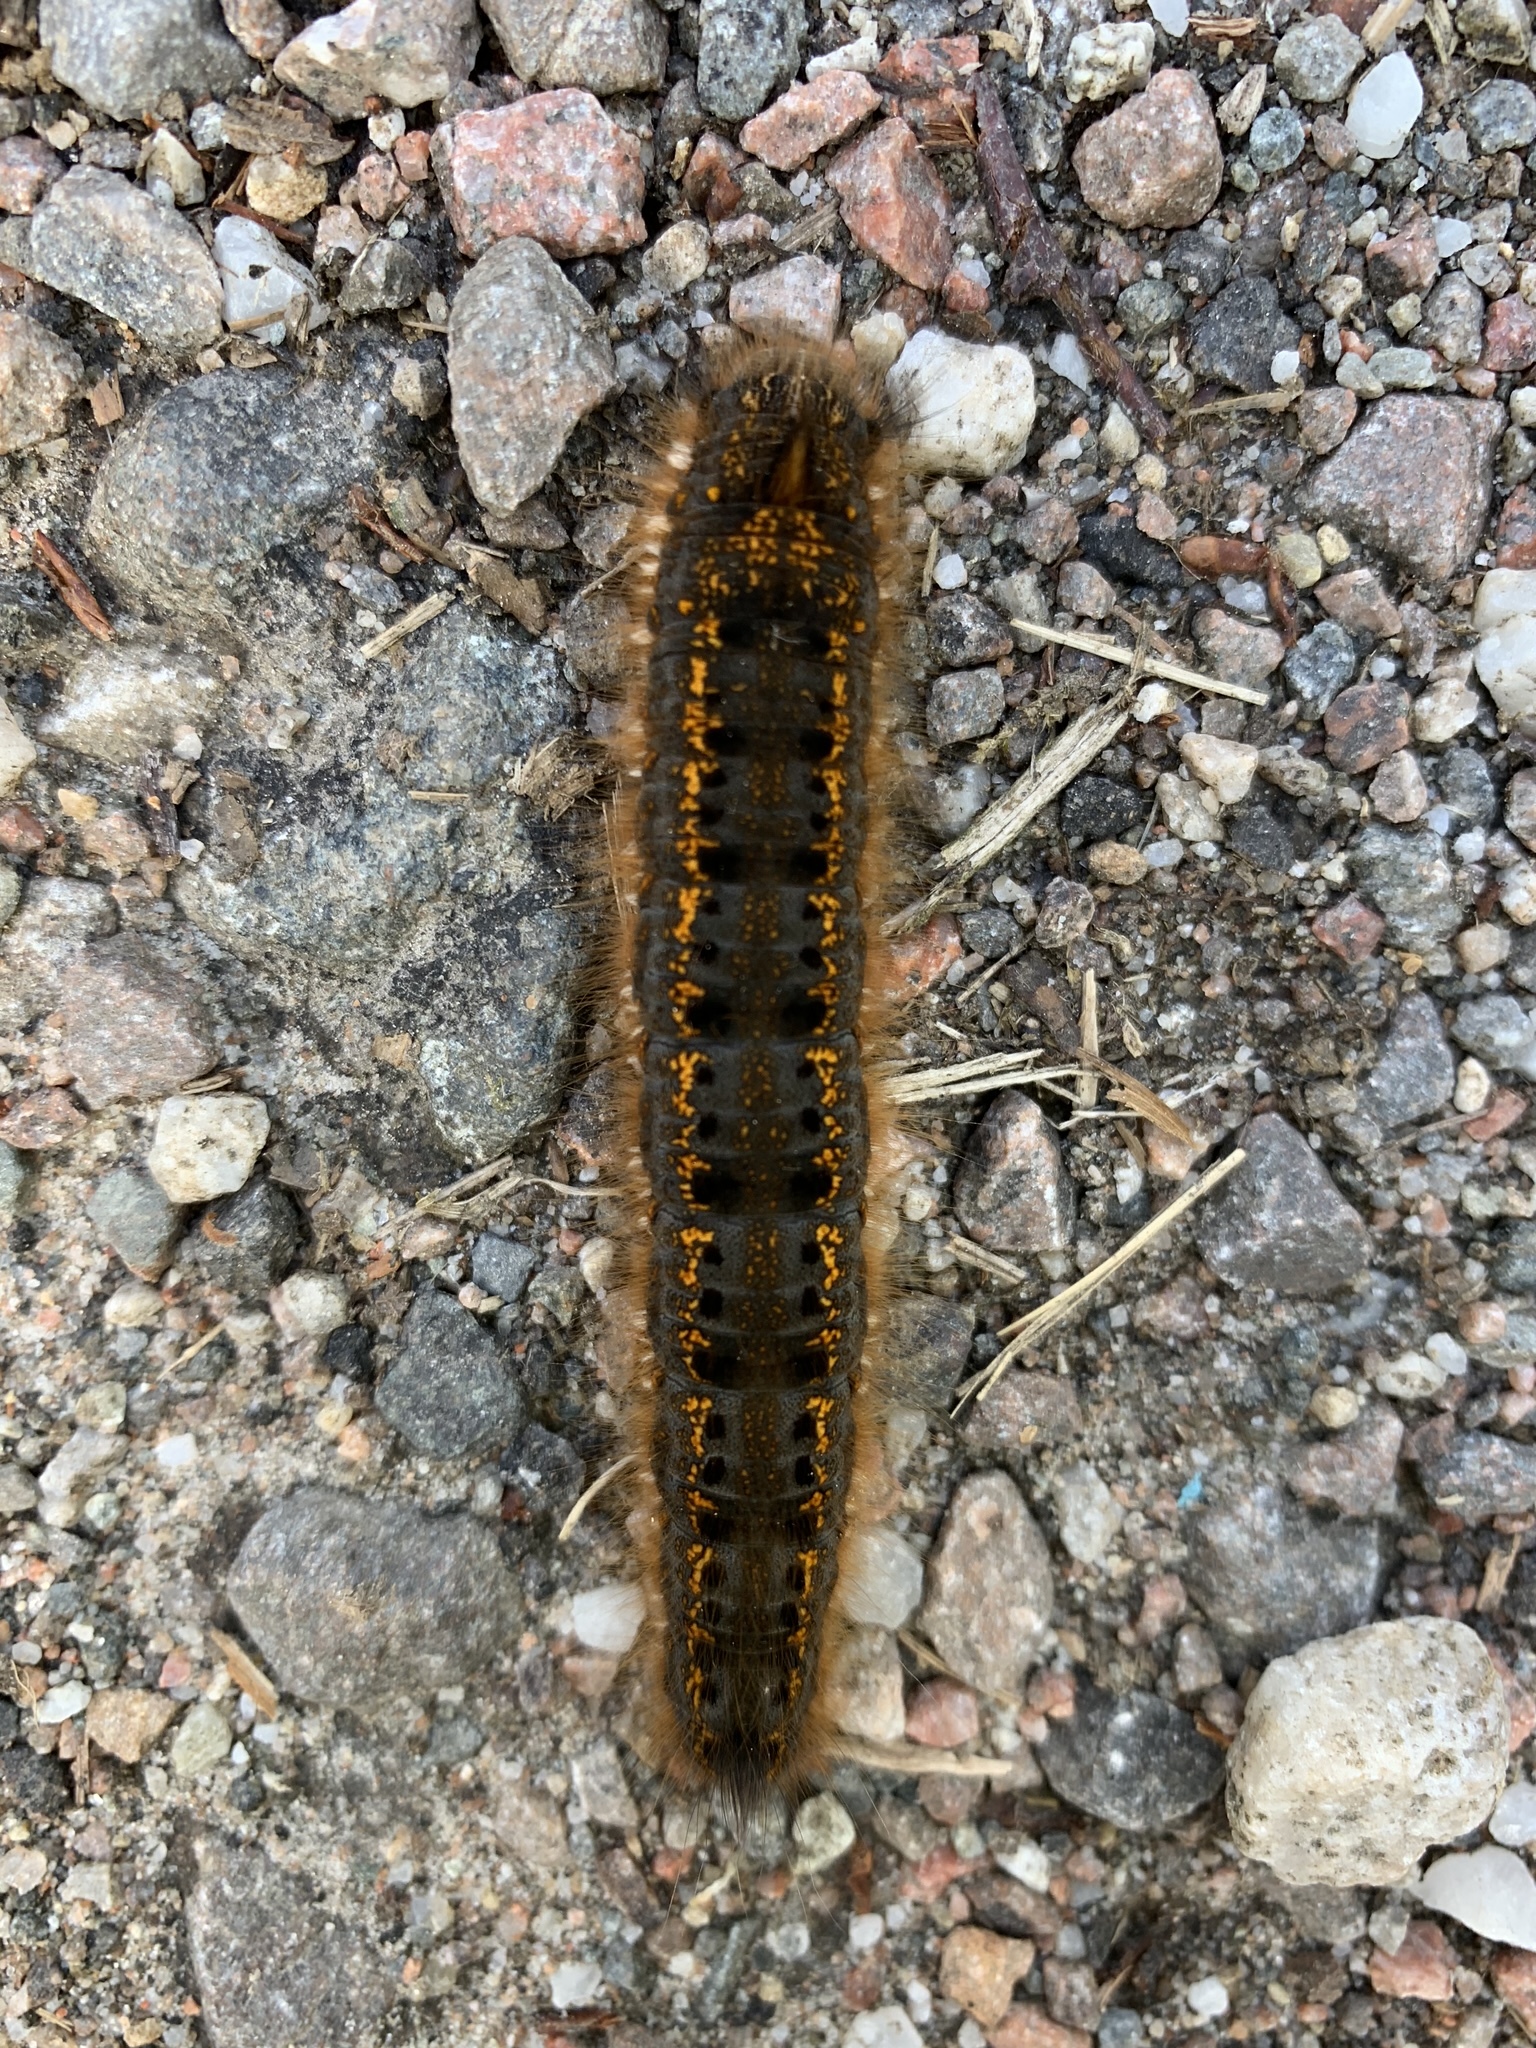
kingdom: Animalia
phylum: Arthropoda
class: Insecta
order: Lepidoptera
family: Lasiocampidae
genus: Euthrix
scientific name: Euthrix potatoria
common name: Drinker
